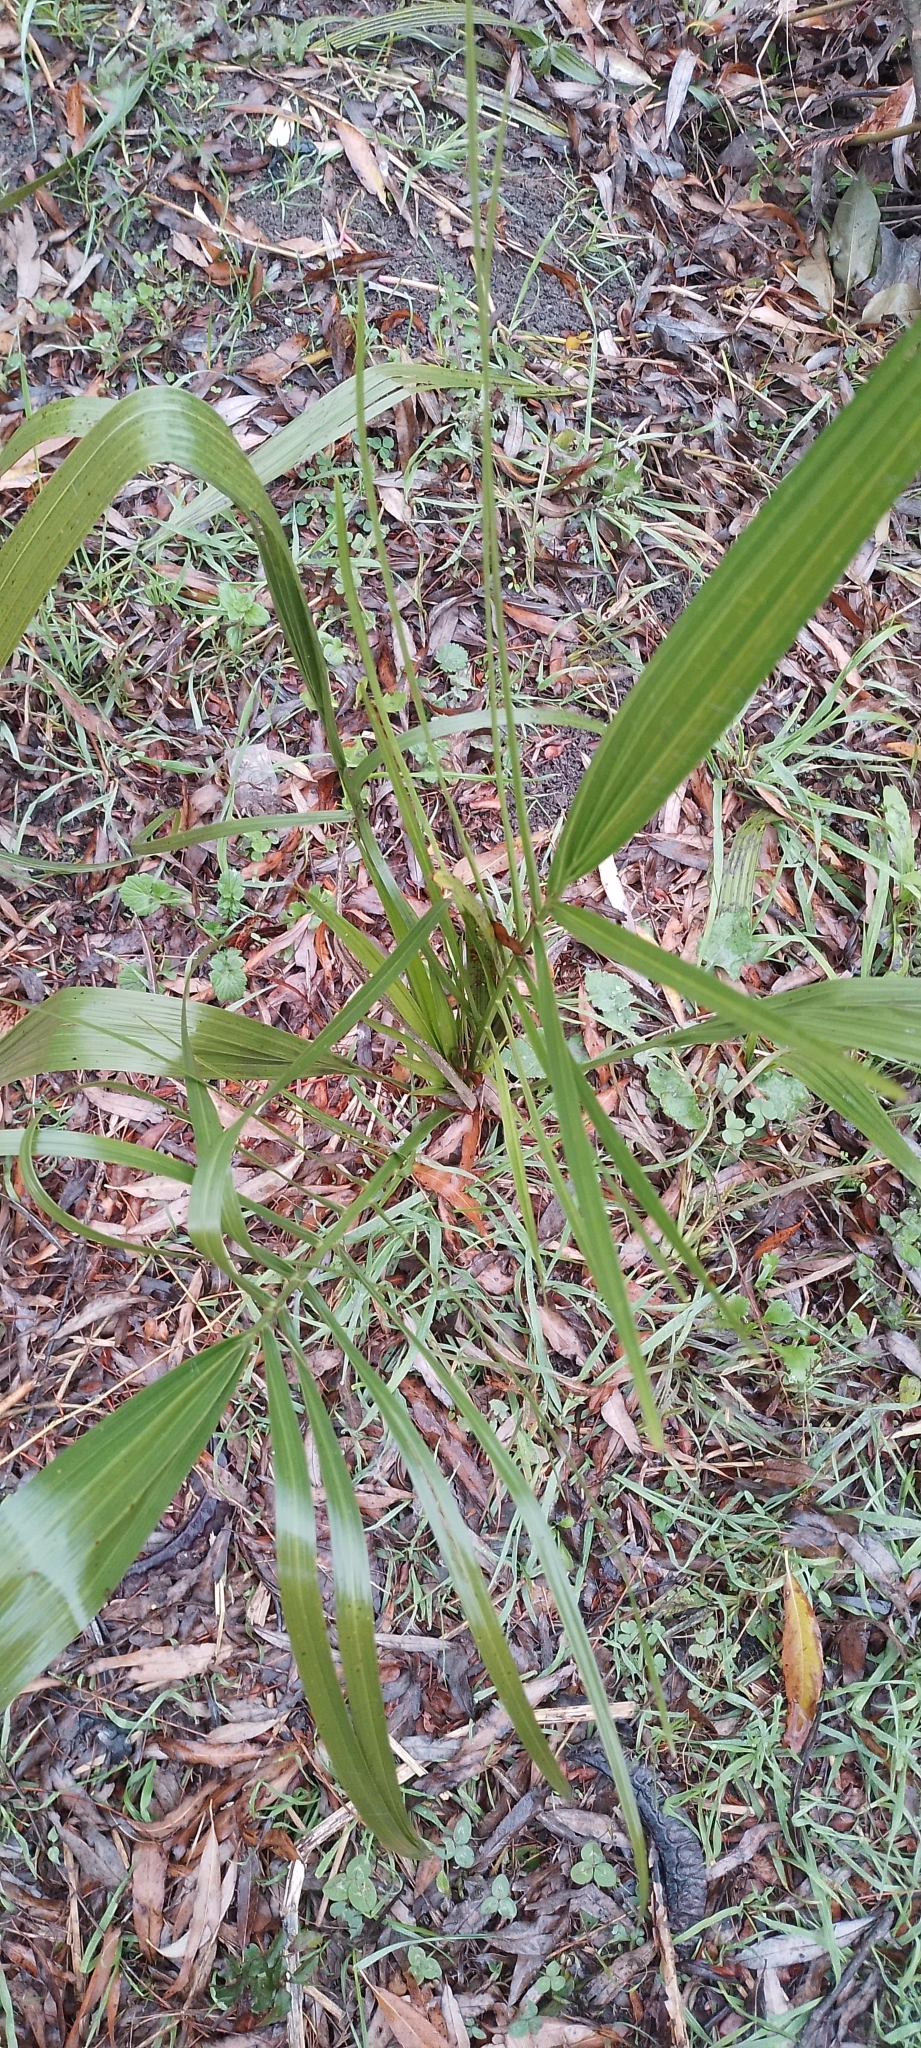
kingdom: Plantae
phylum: Tracheophyta
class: Liliopsida
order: Arecales
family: Arecaceae
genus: Phoenix
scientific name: Phoenix canariensis
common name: Canary island date palm
